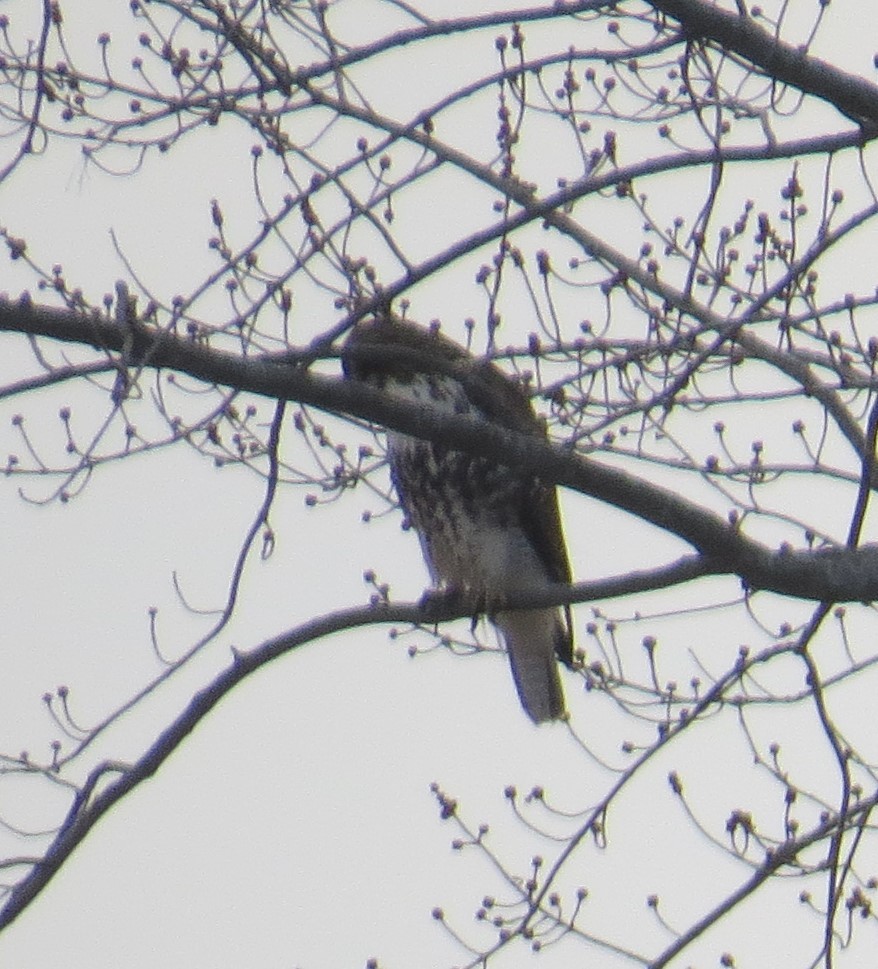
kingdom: Animalia
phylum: Chordata
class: Aves
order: Accipitriformes
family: Accipitridae
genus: Buteo
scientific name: Buteo jamaicensis
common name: Red-tailed hawk
